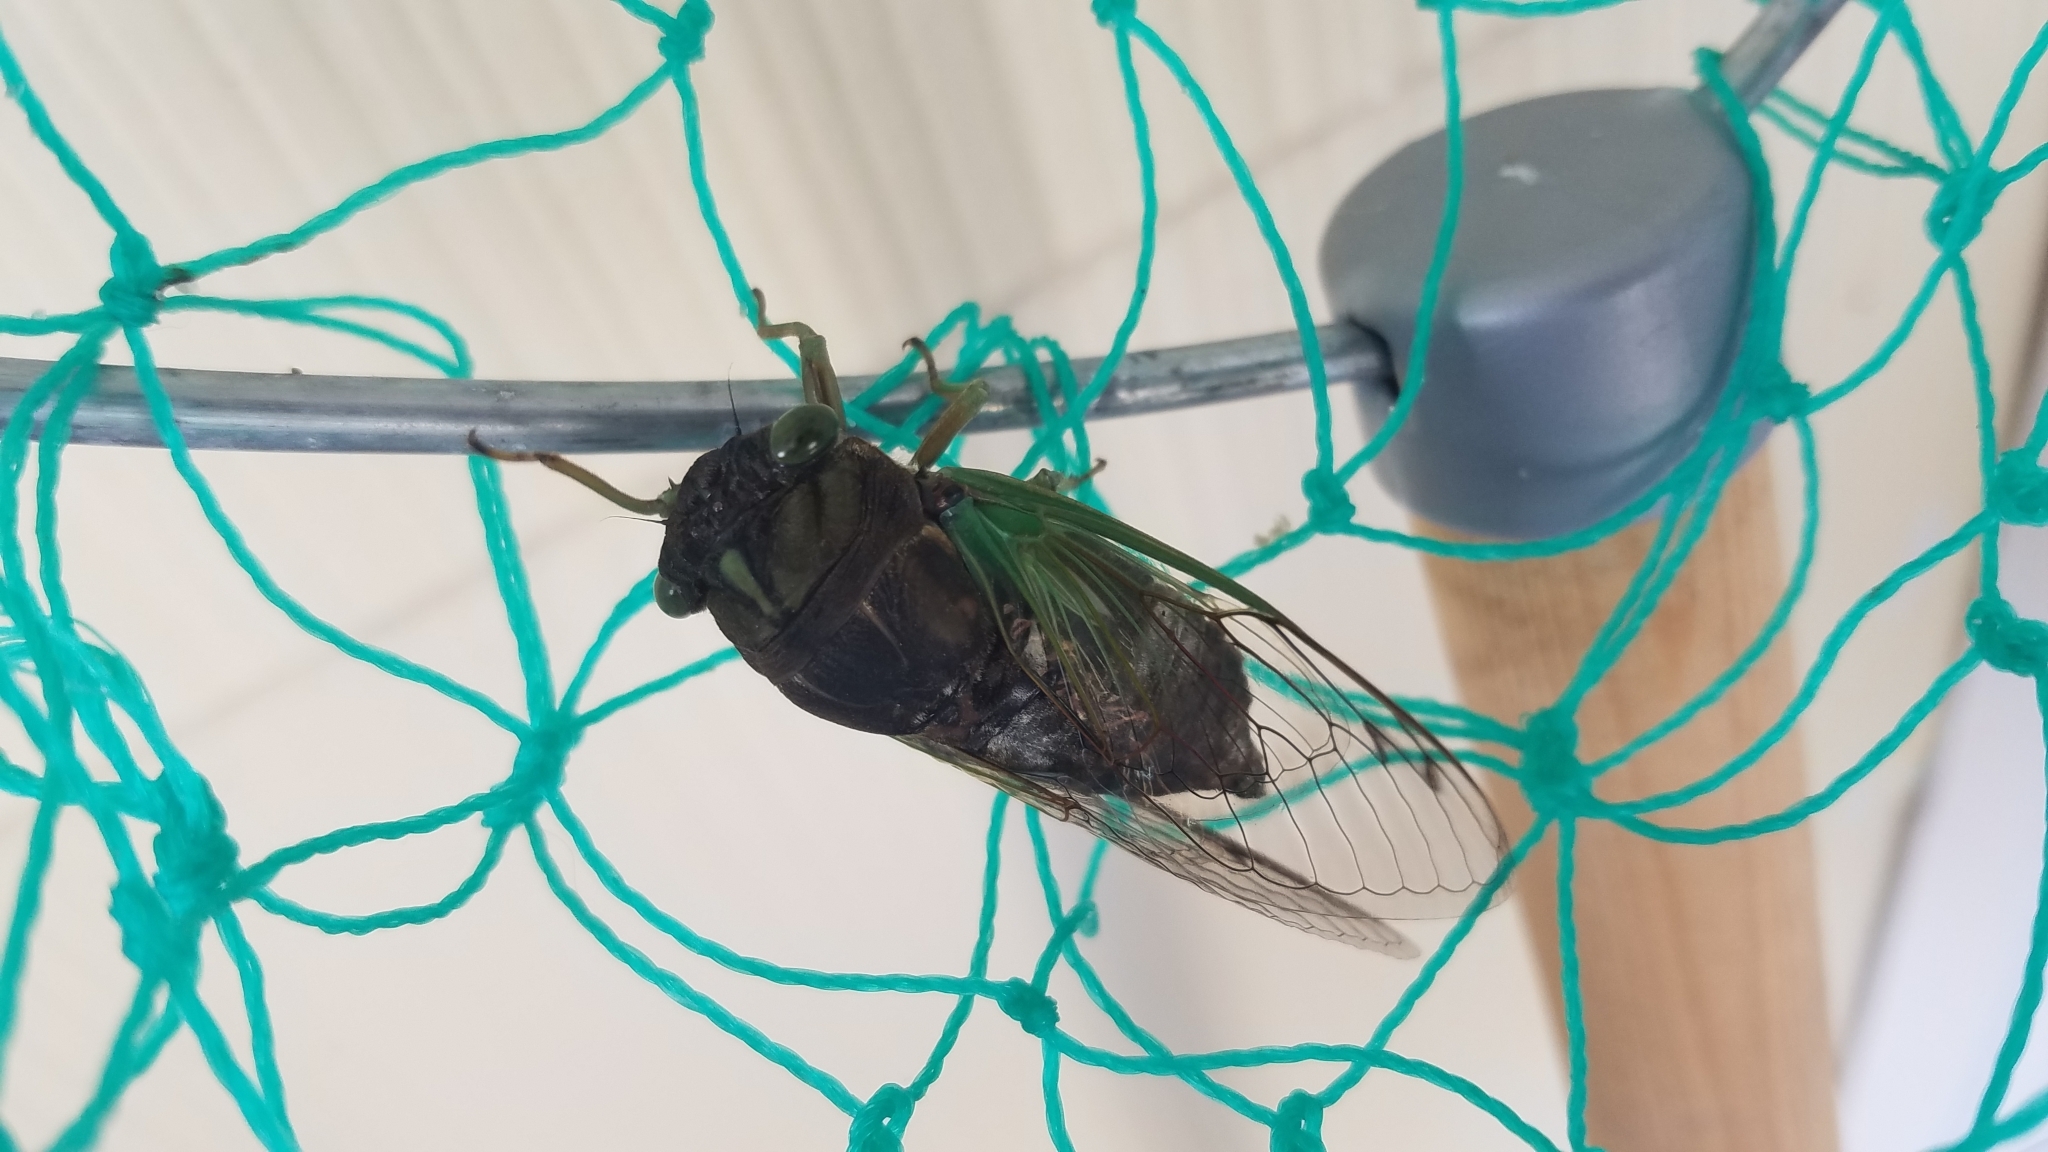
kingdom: Animalia
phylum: Arthropoda
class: Insecta
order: Hemiptera
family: Cicadidae
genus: Neotibicen
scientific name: Neotibicen tibicen
